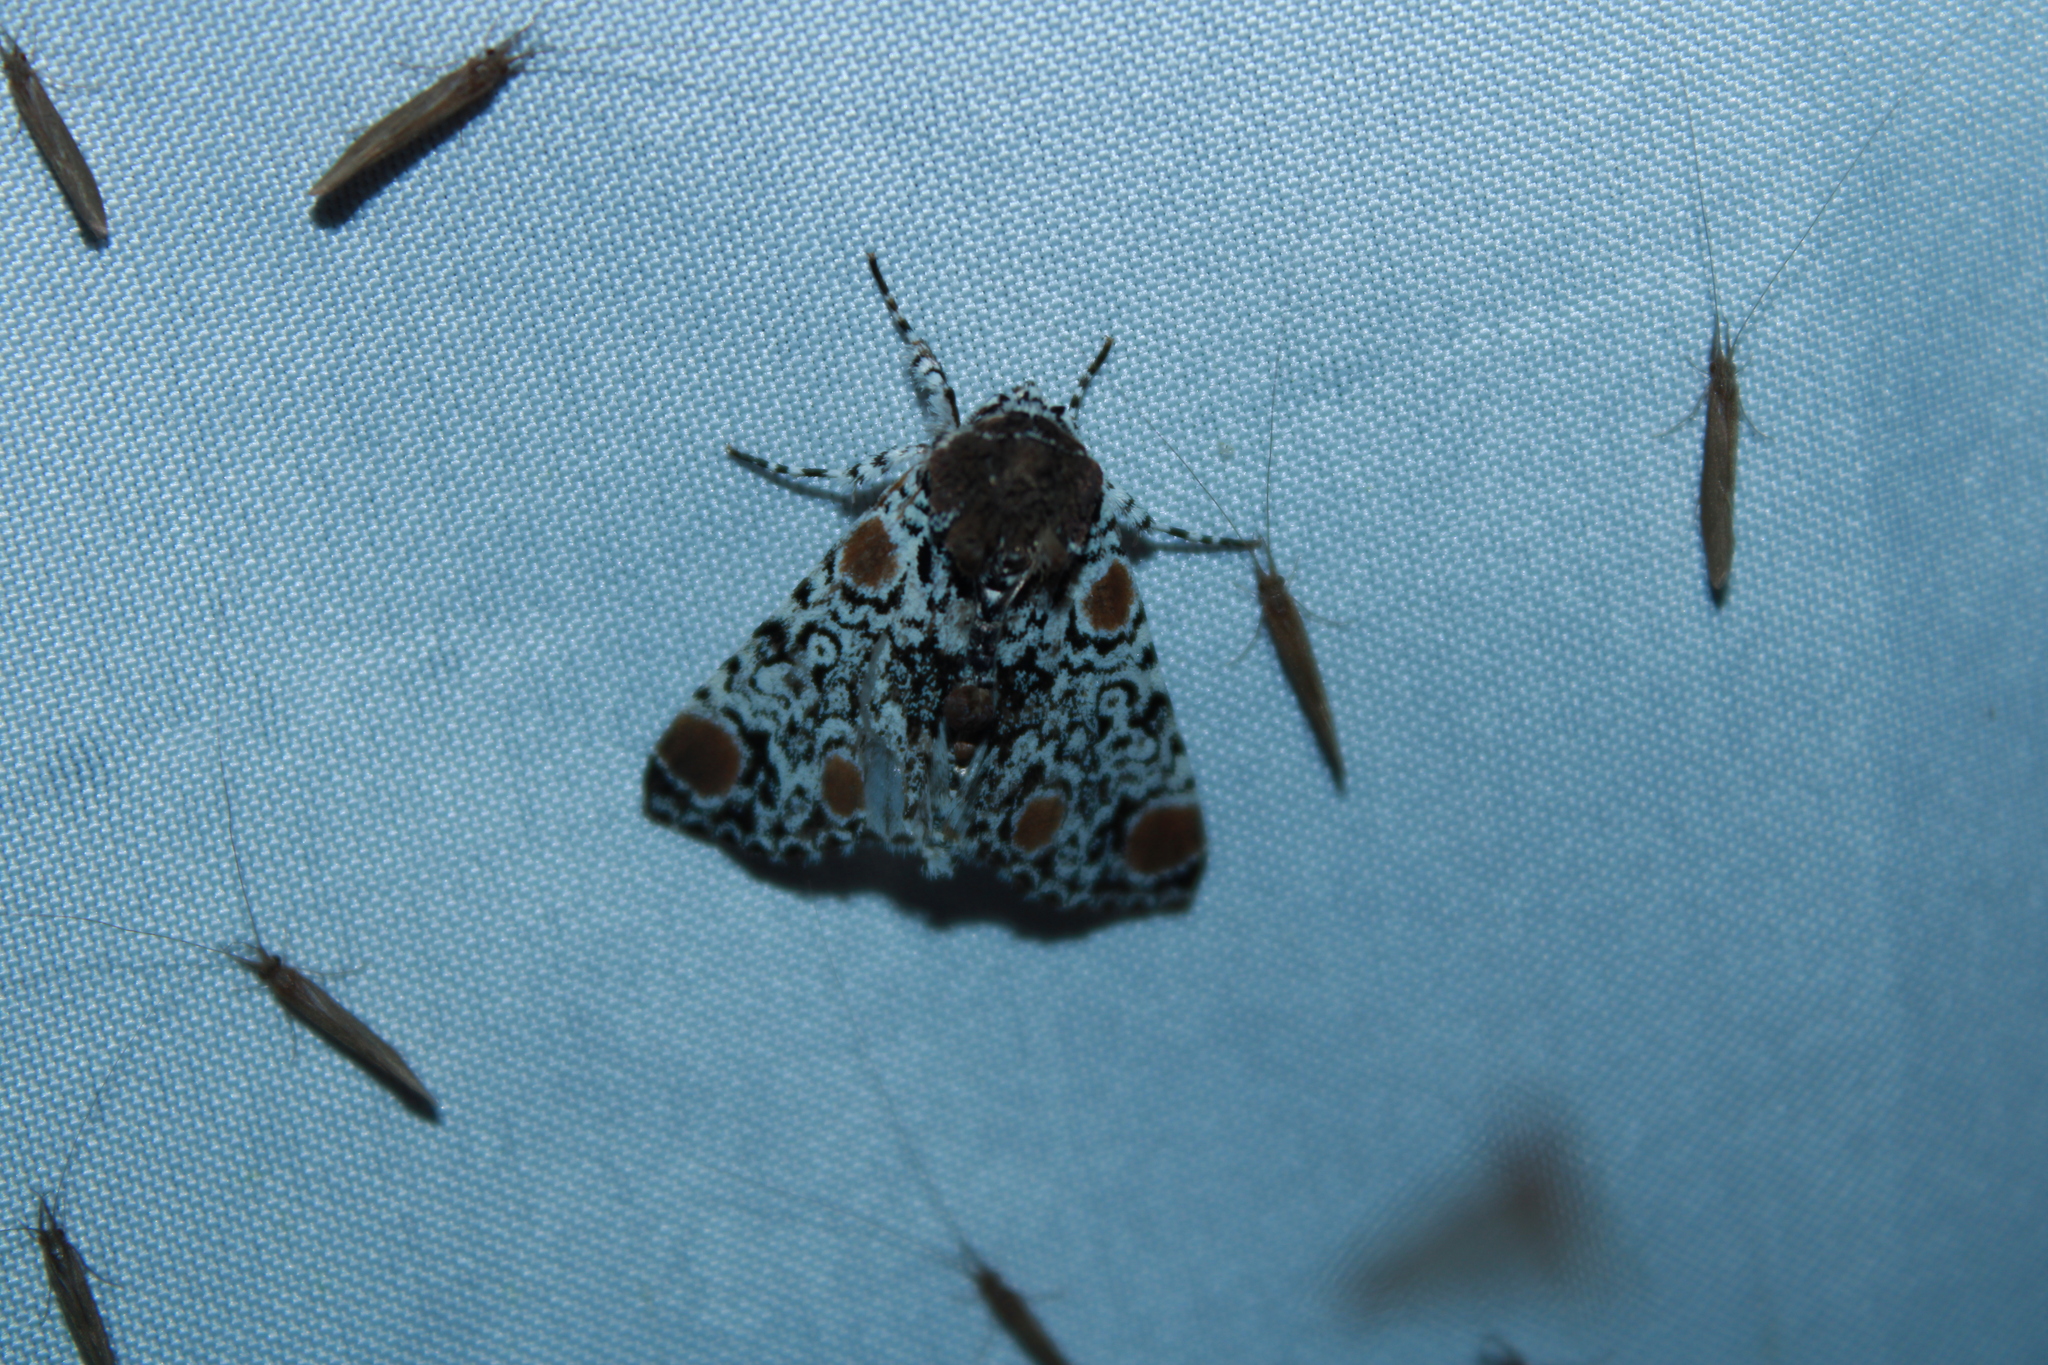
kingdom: Animalia
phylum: Arthropoda
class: Insecta
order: Lepidoptera
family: Noctuidae
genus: Harrisimemna
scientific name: Harrisimemna trisignata
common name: Harris threespot
